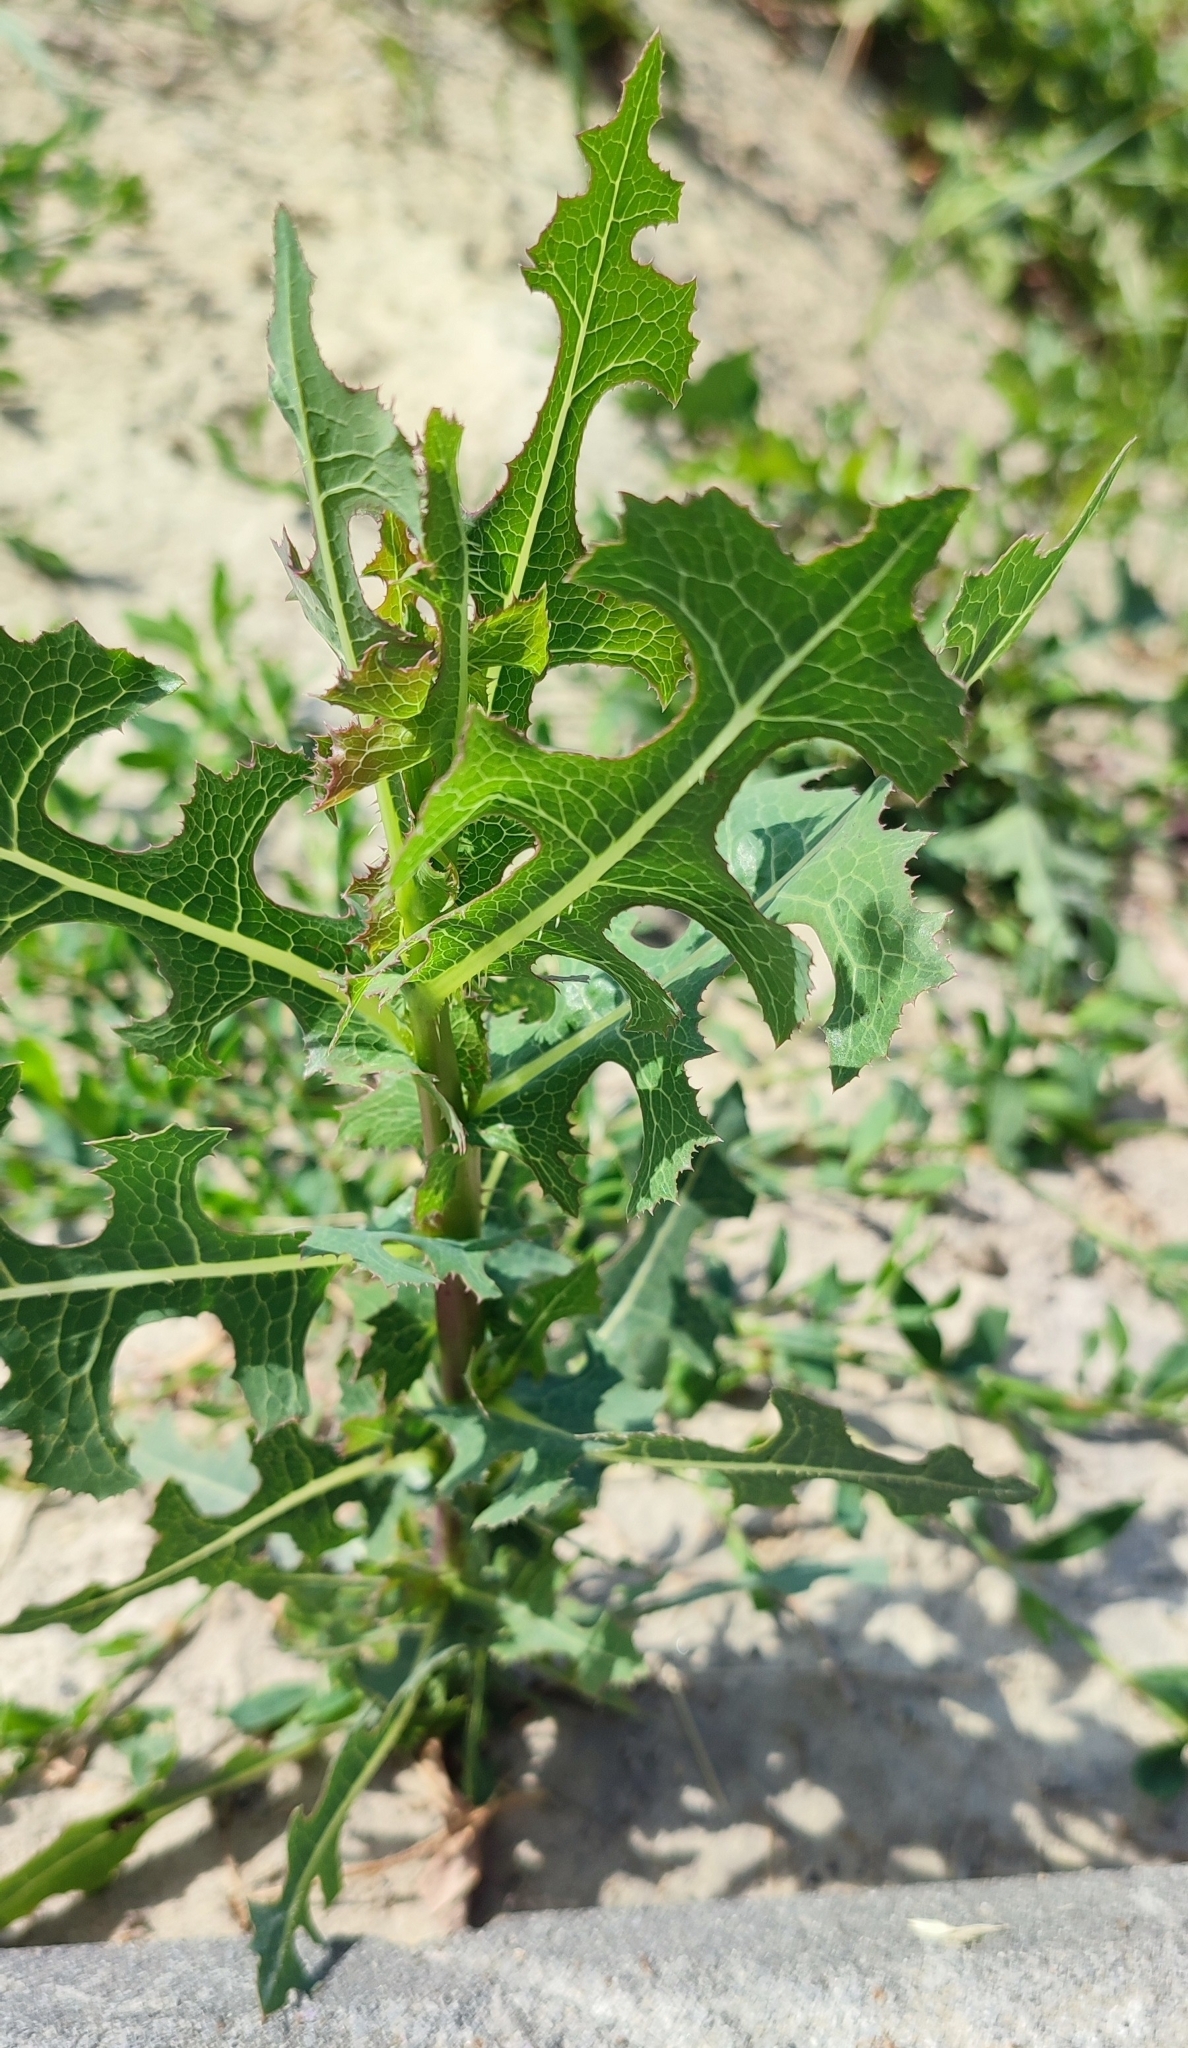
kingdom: Plantae
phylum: Tracheophyta
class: Magnoliopsida
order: Asterales
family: Asteraceae
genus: Lactuca
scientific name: Lactuca serriola
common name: Prickly lettuce
